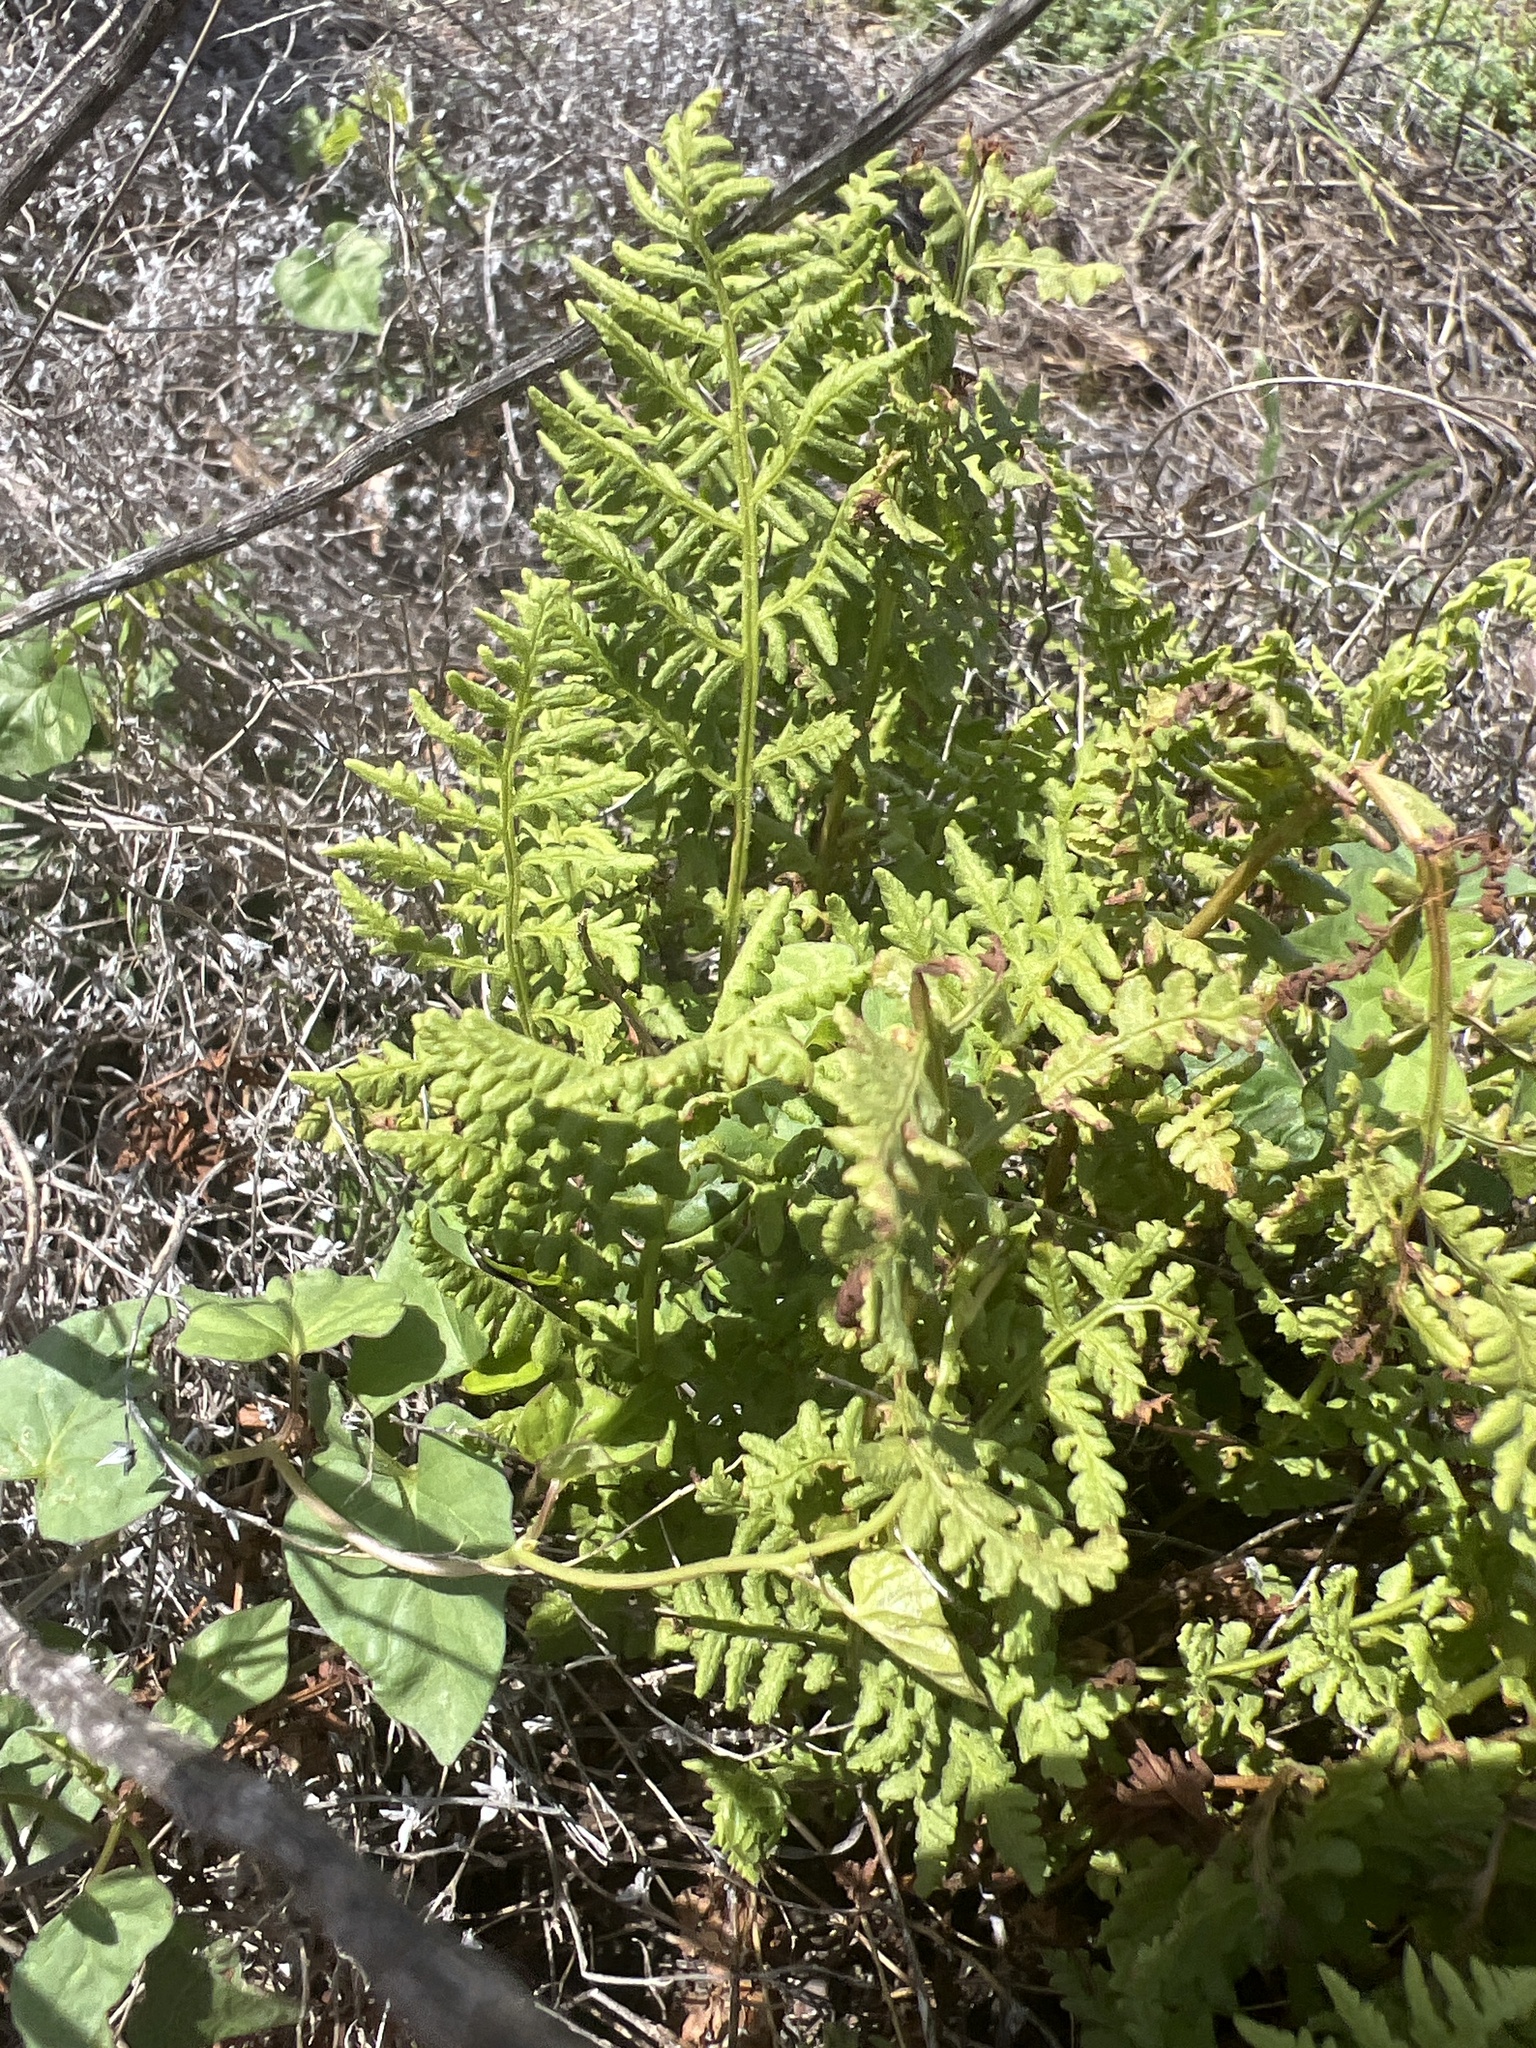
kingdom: Plantae
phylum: Tracheophyta
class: Polypodiopsida
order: Polypodiales
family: Woodsiaceae
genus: Physematium
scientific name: Physematium obtusum
